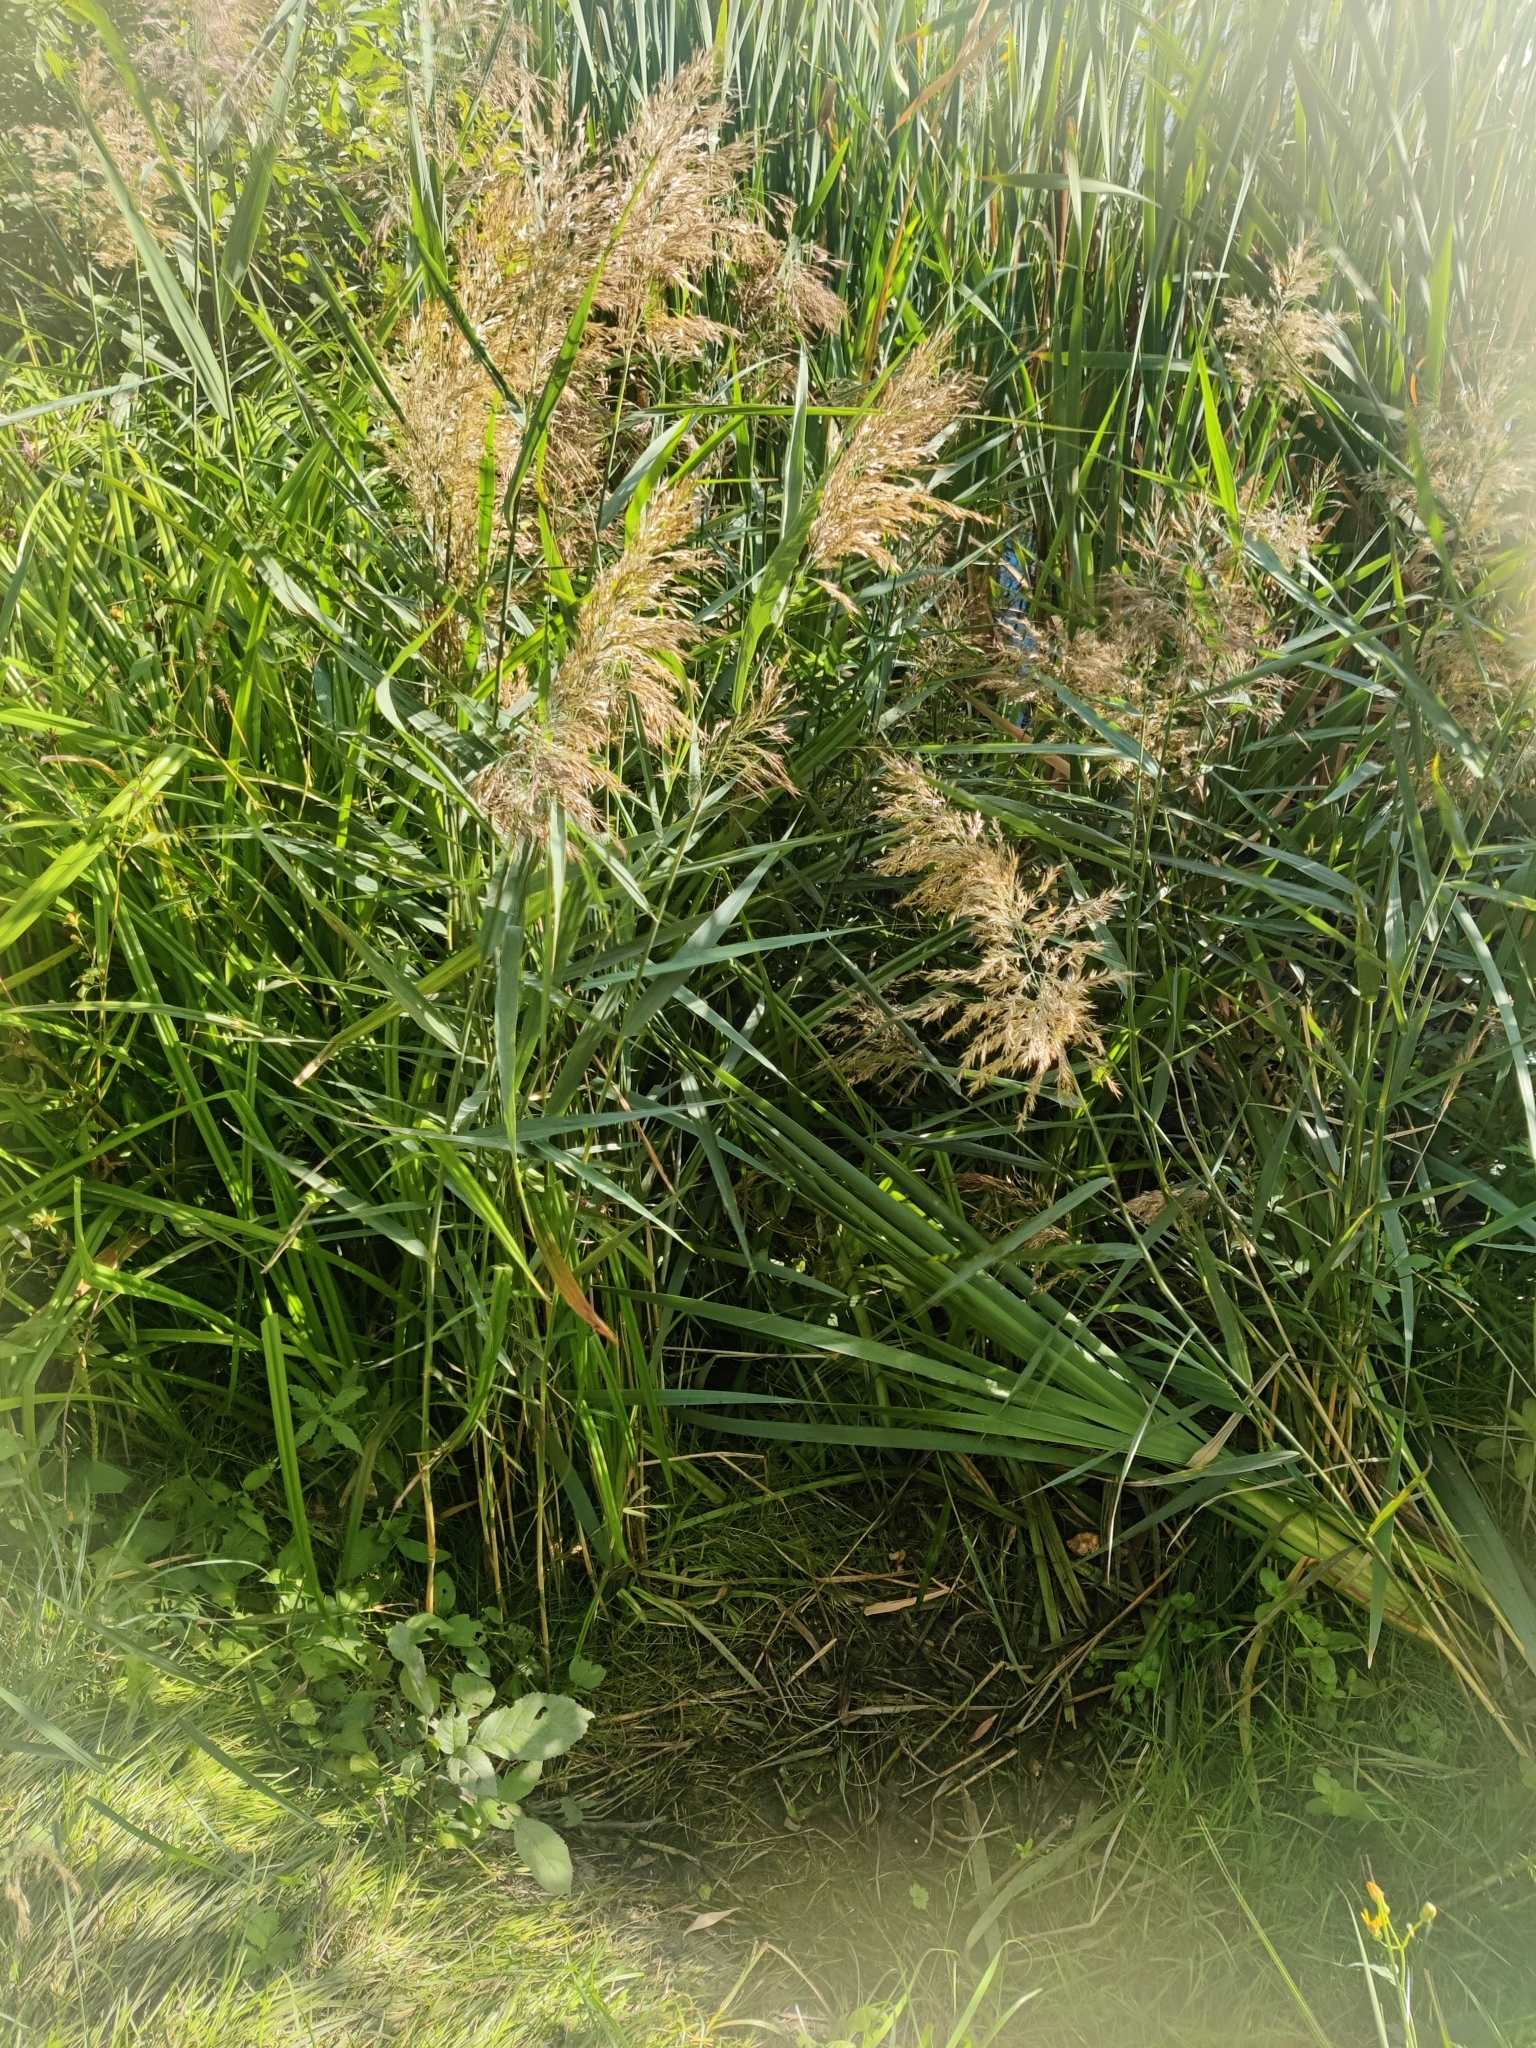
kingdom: Plantae
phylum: Tracheophyta
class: Liliopsida
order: Poales
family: Poaceae
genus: Phragmites
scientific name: Phragmites australis
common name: Common reed
